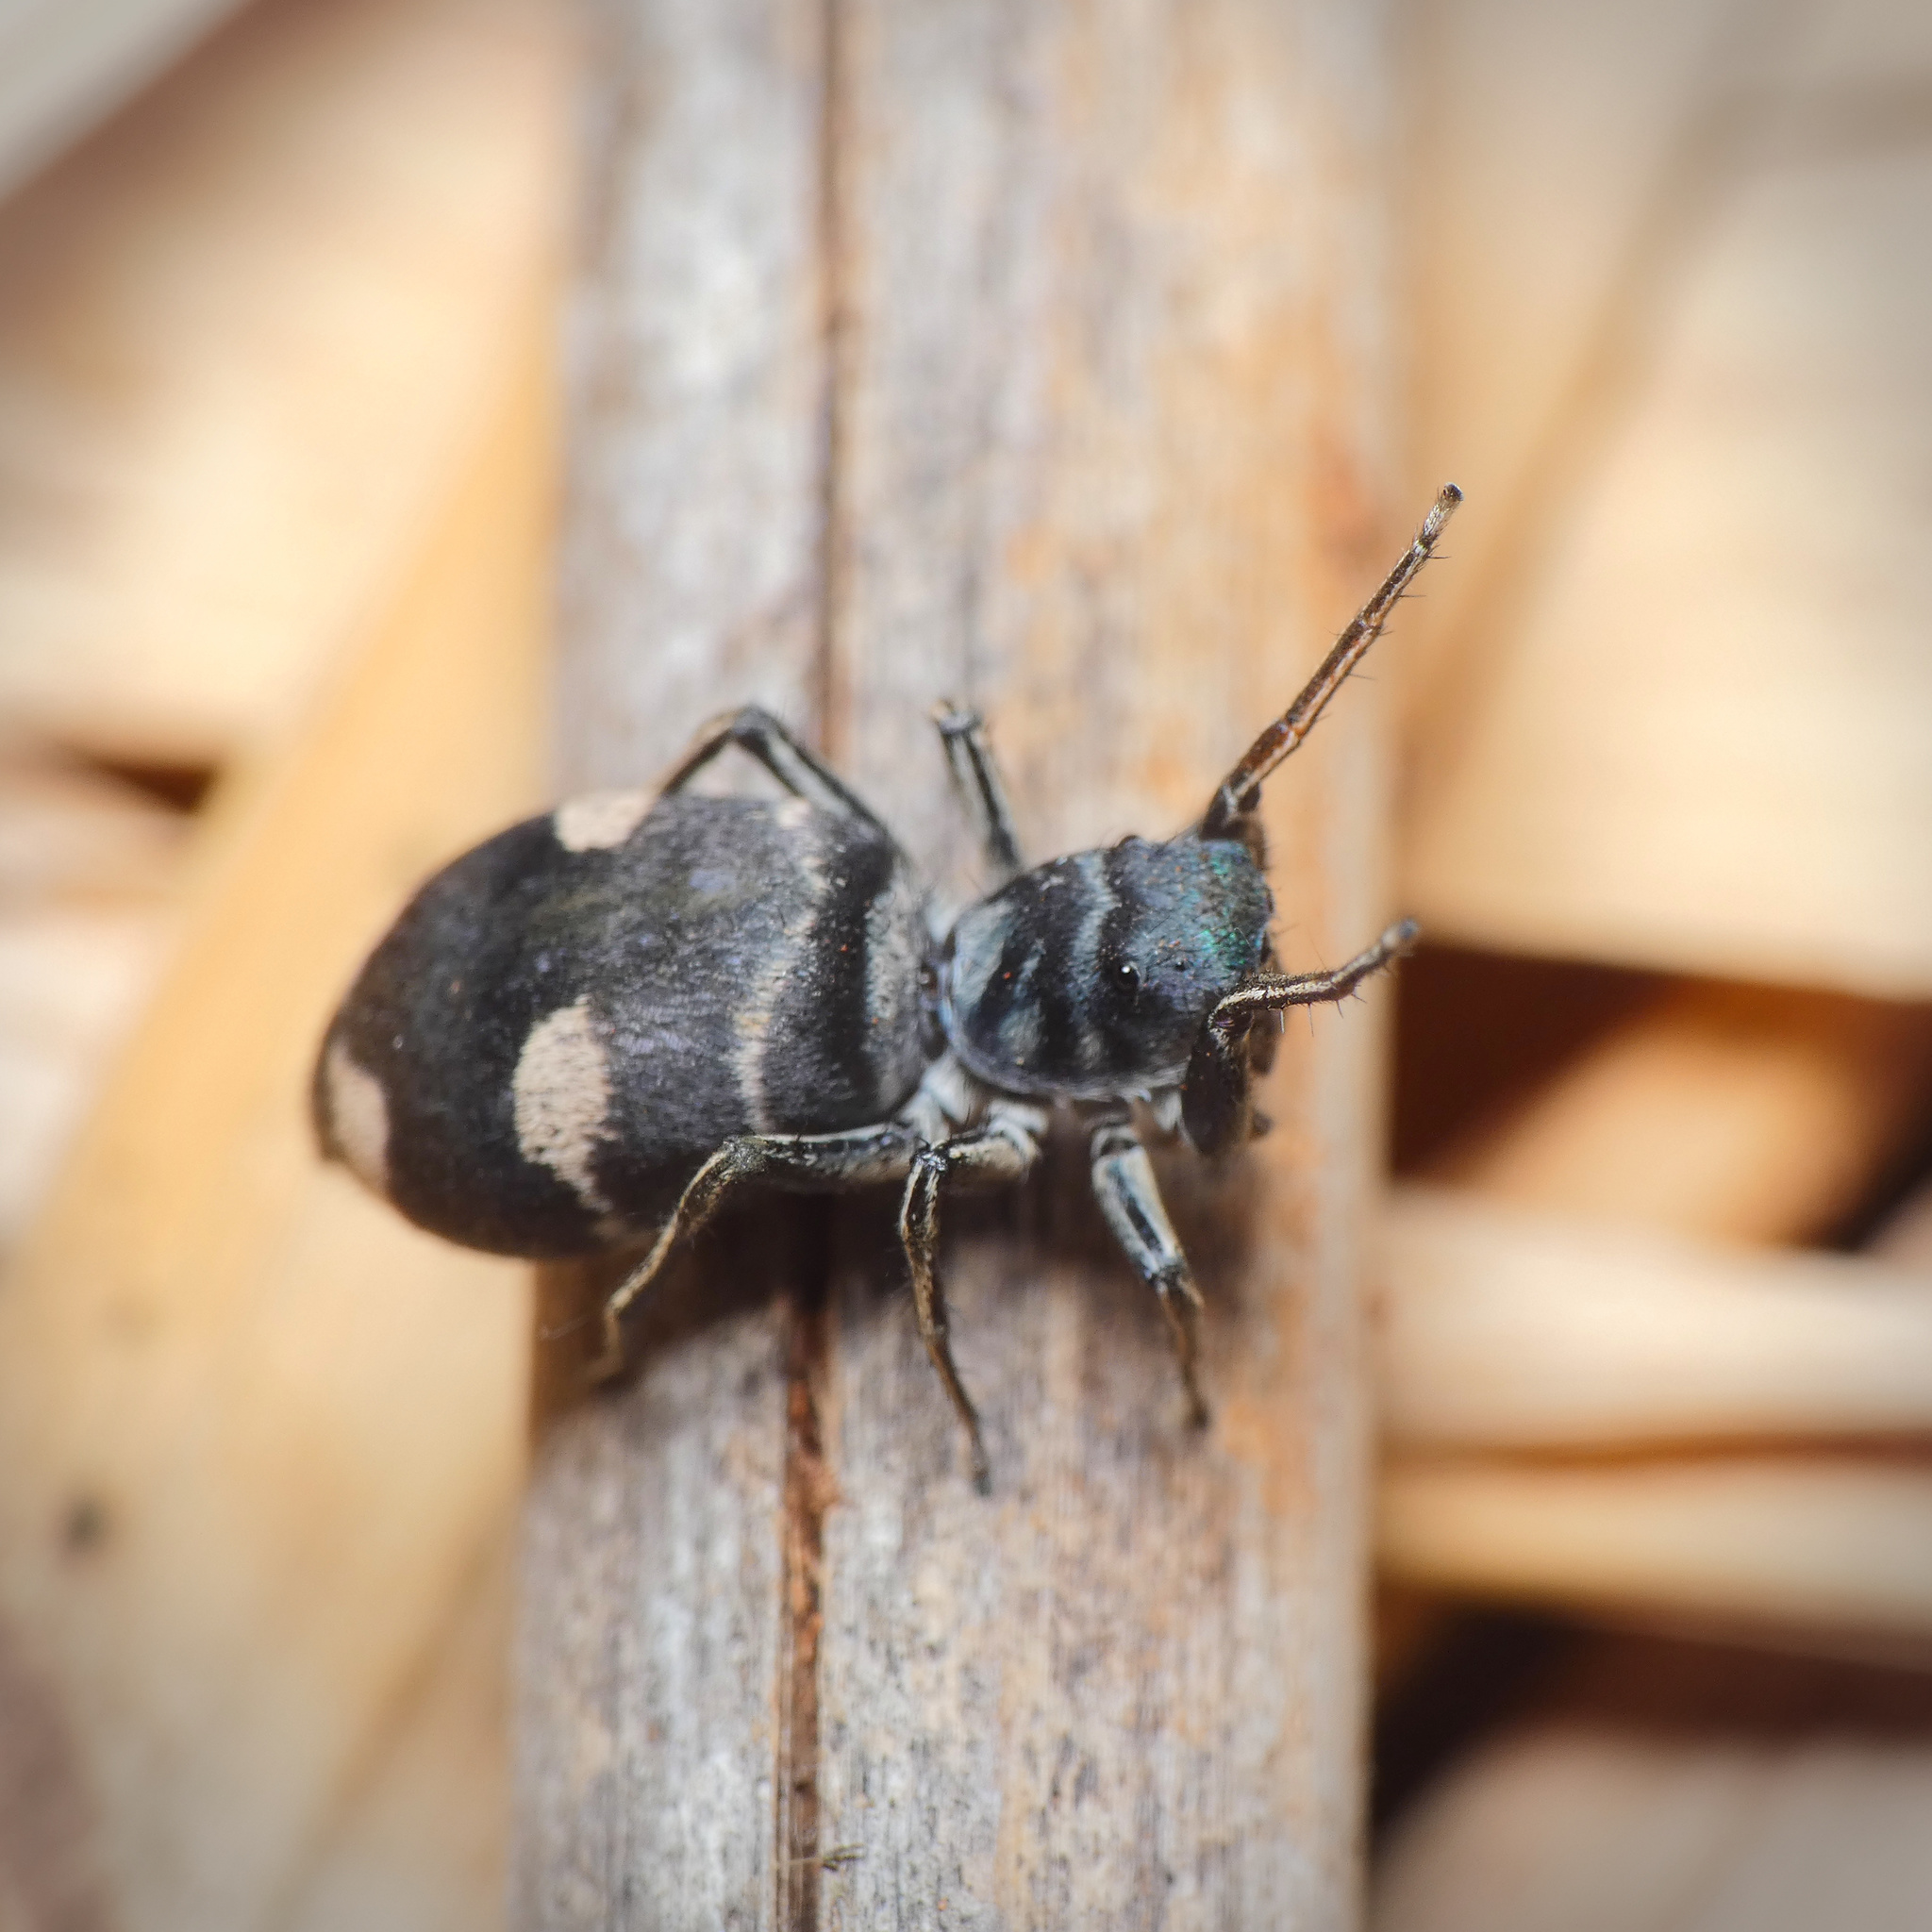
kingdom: Animalia
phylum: Arthropoda
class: Arachnida
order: Araneae
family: Salticidae
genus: Mexcala
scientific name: Mexcala quadrimaculata
